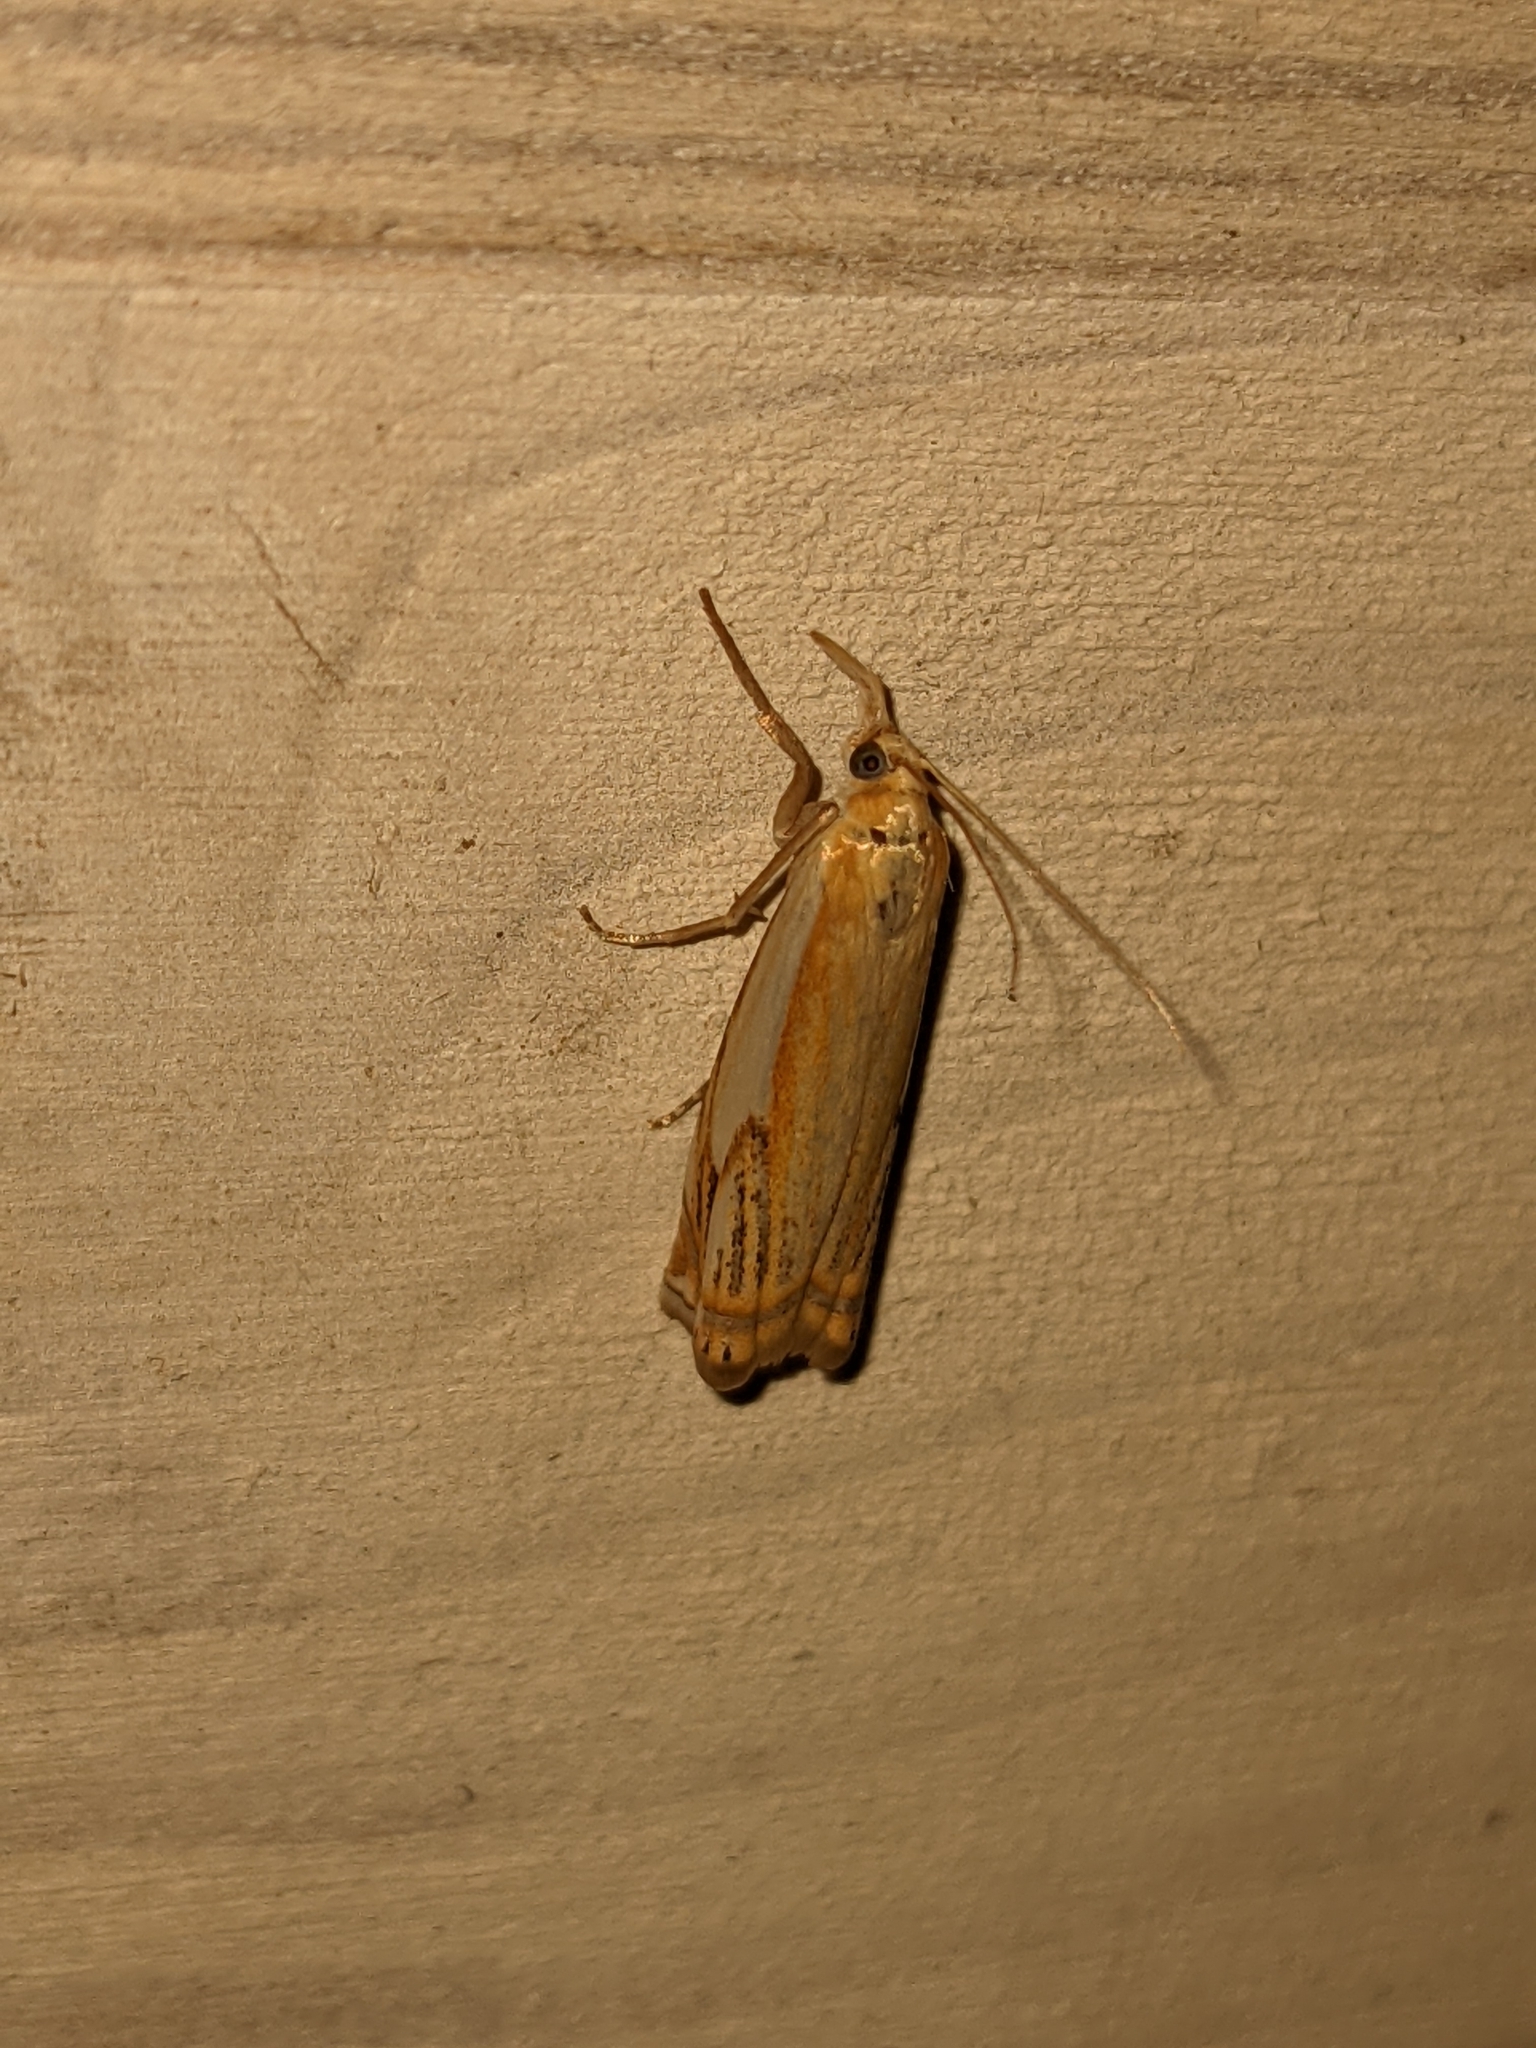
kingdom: Animalia
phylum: Arthropoda
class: Insecta
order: Lepidoptera
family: Crambidae
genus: Crambus
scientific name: Crambus agitatellus
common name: Double-banded grass-veneer
